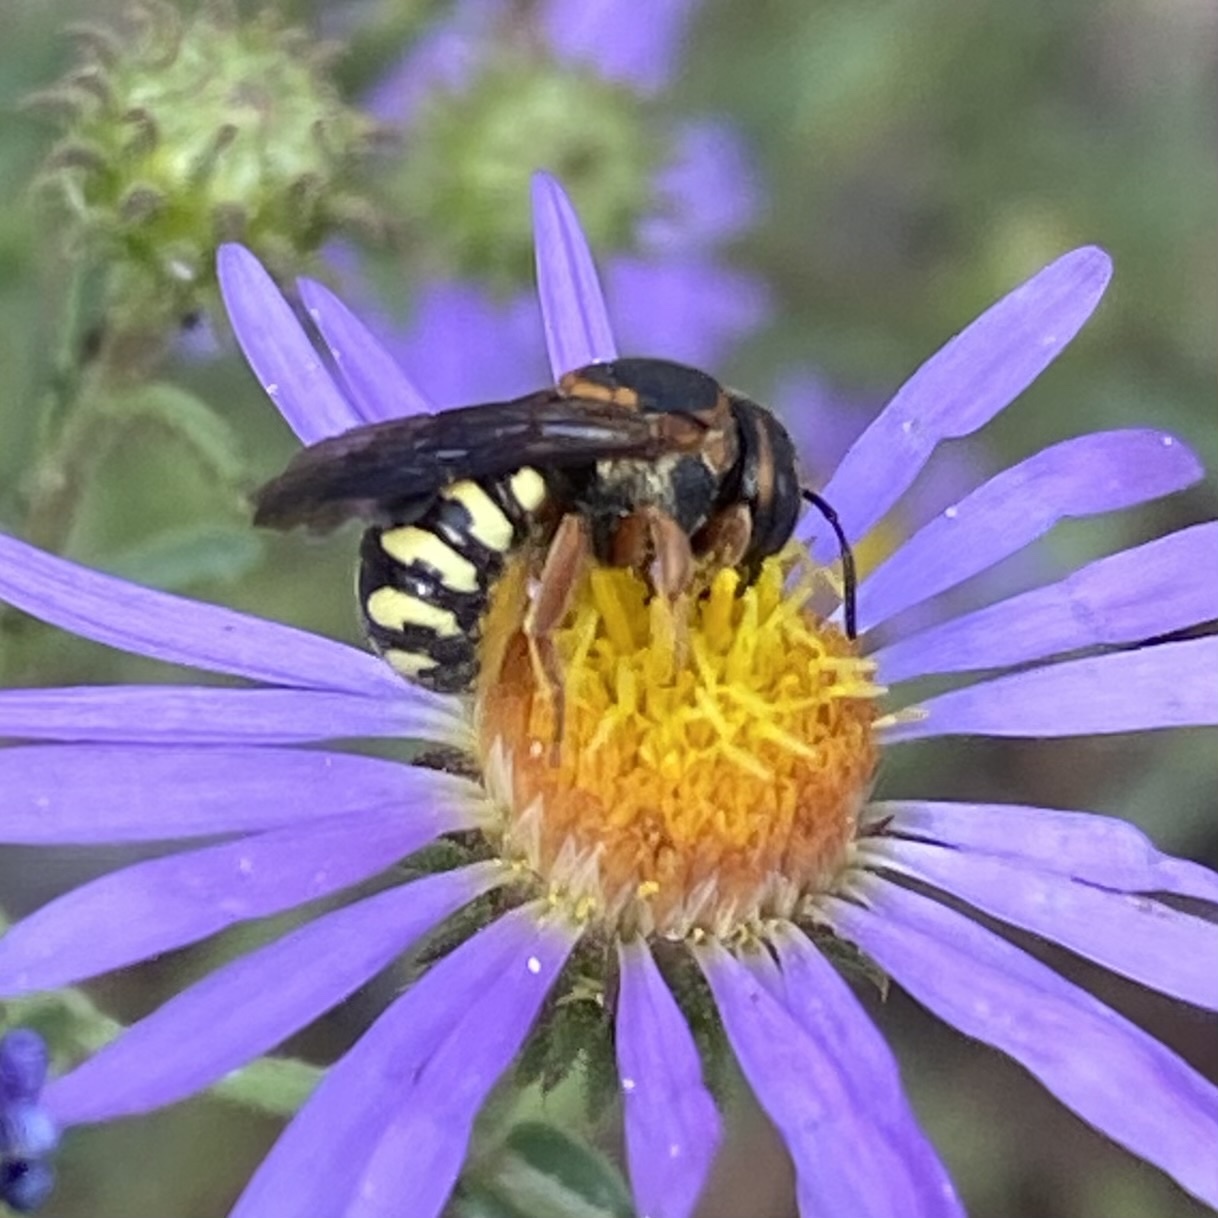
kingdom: Animalia
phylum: Arthropoda
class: Insecta
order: Hymenoptera
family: Megachilidae
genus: Dianthidium
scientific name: Dianthidium curvatum
